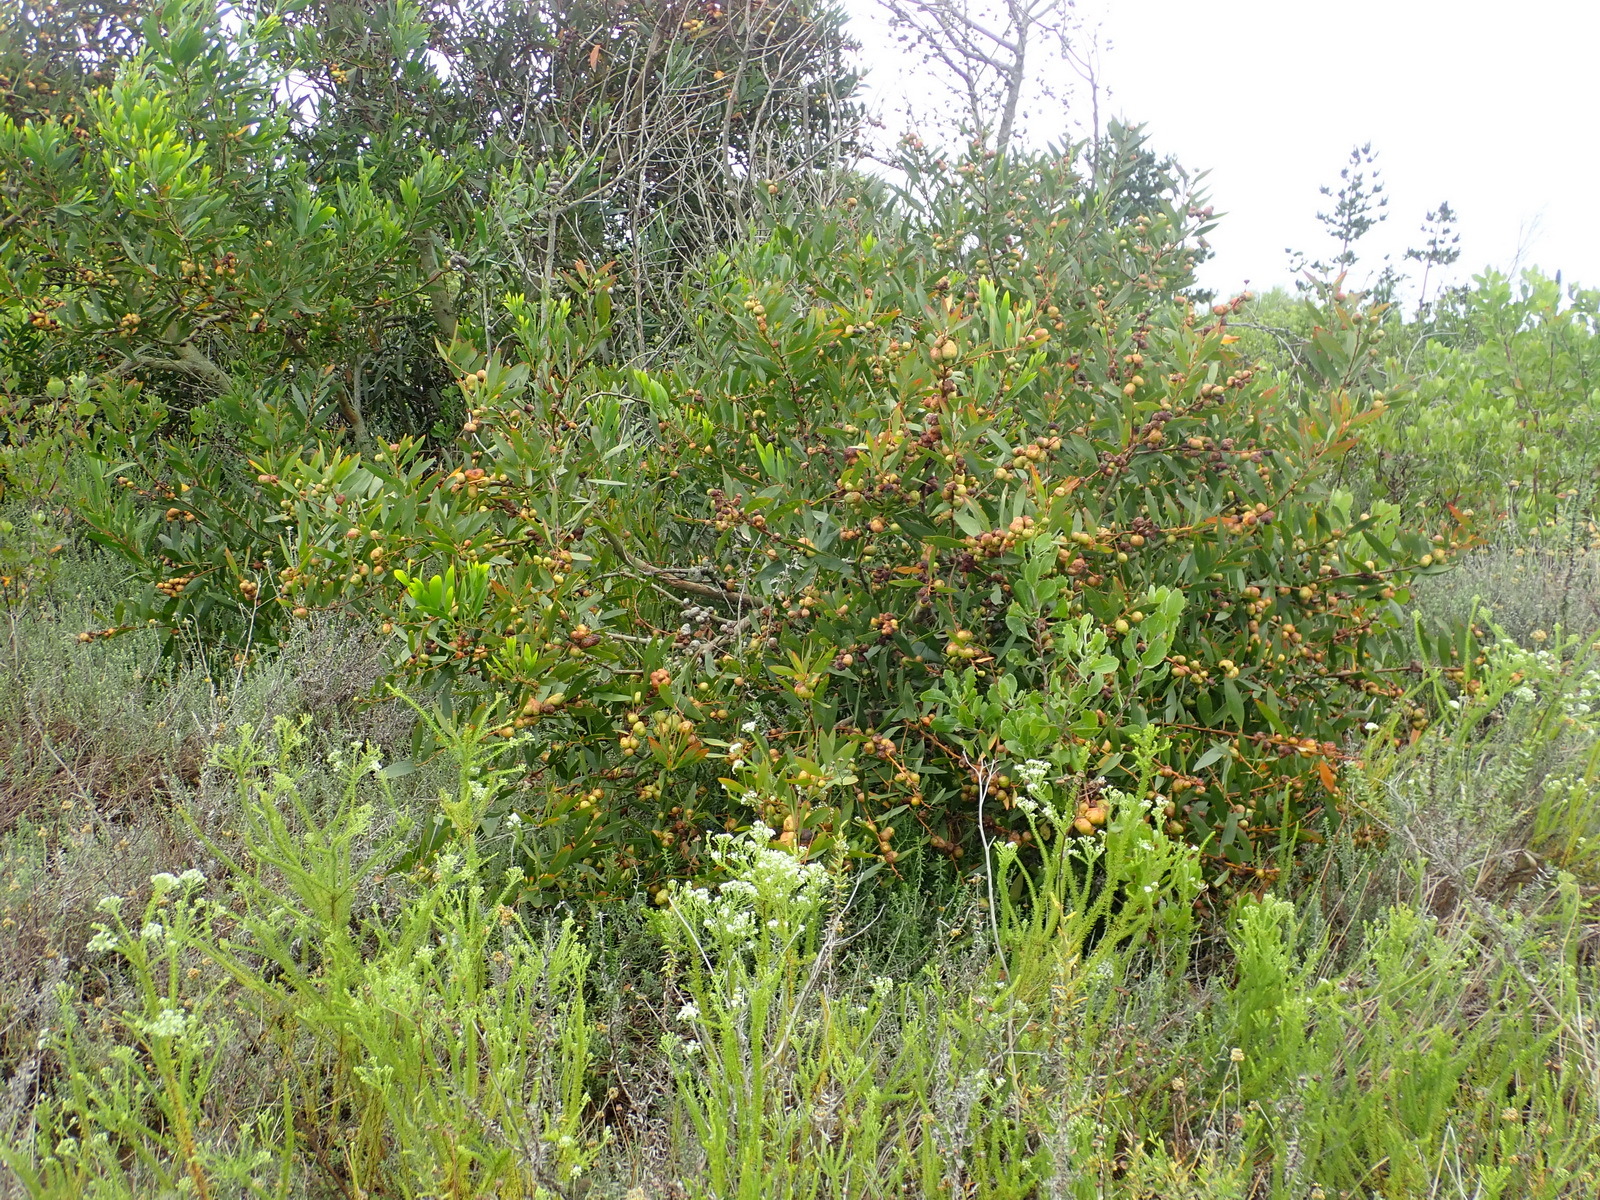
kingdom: Plantae
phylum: Tracheophyta
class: Magnoliopsida
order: Fabales
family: Fabaceae
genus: Acacia
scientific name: Acacia longifolia
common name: Sydney golden wattle
